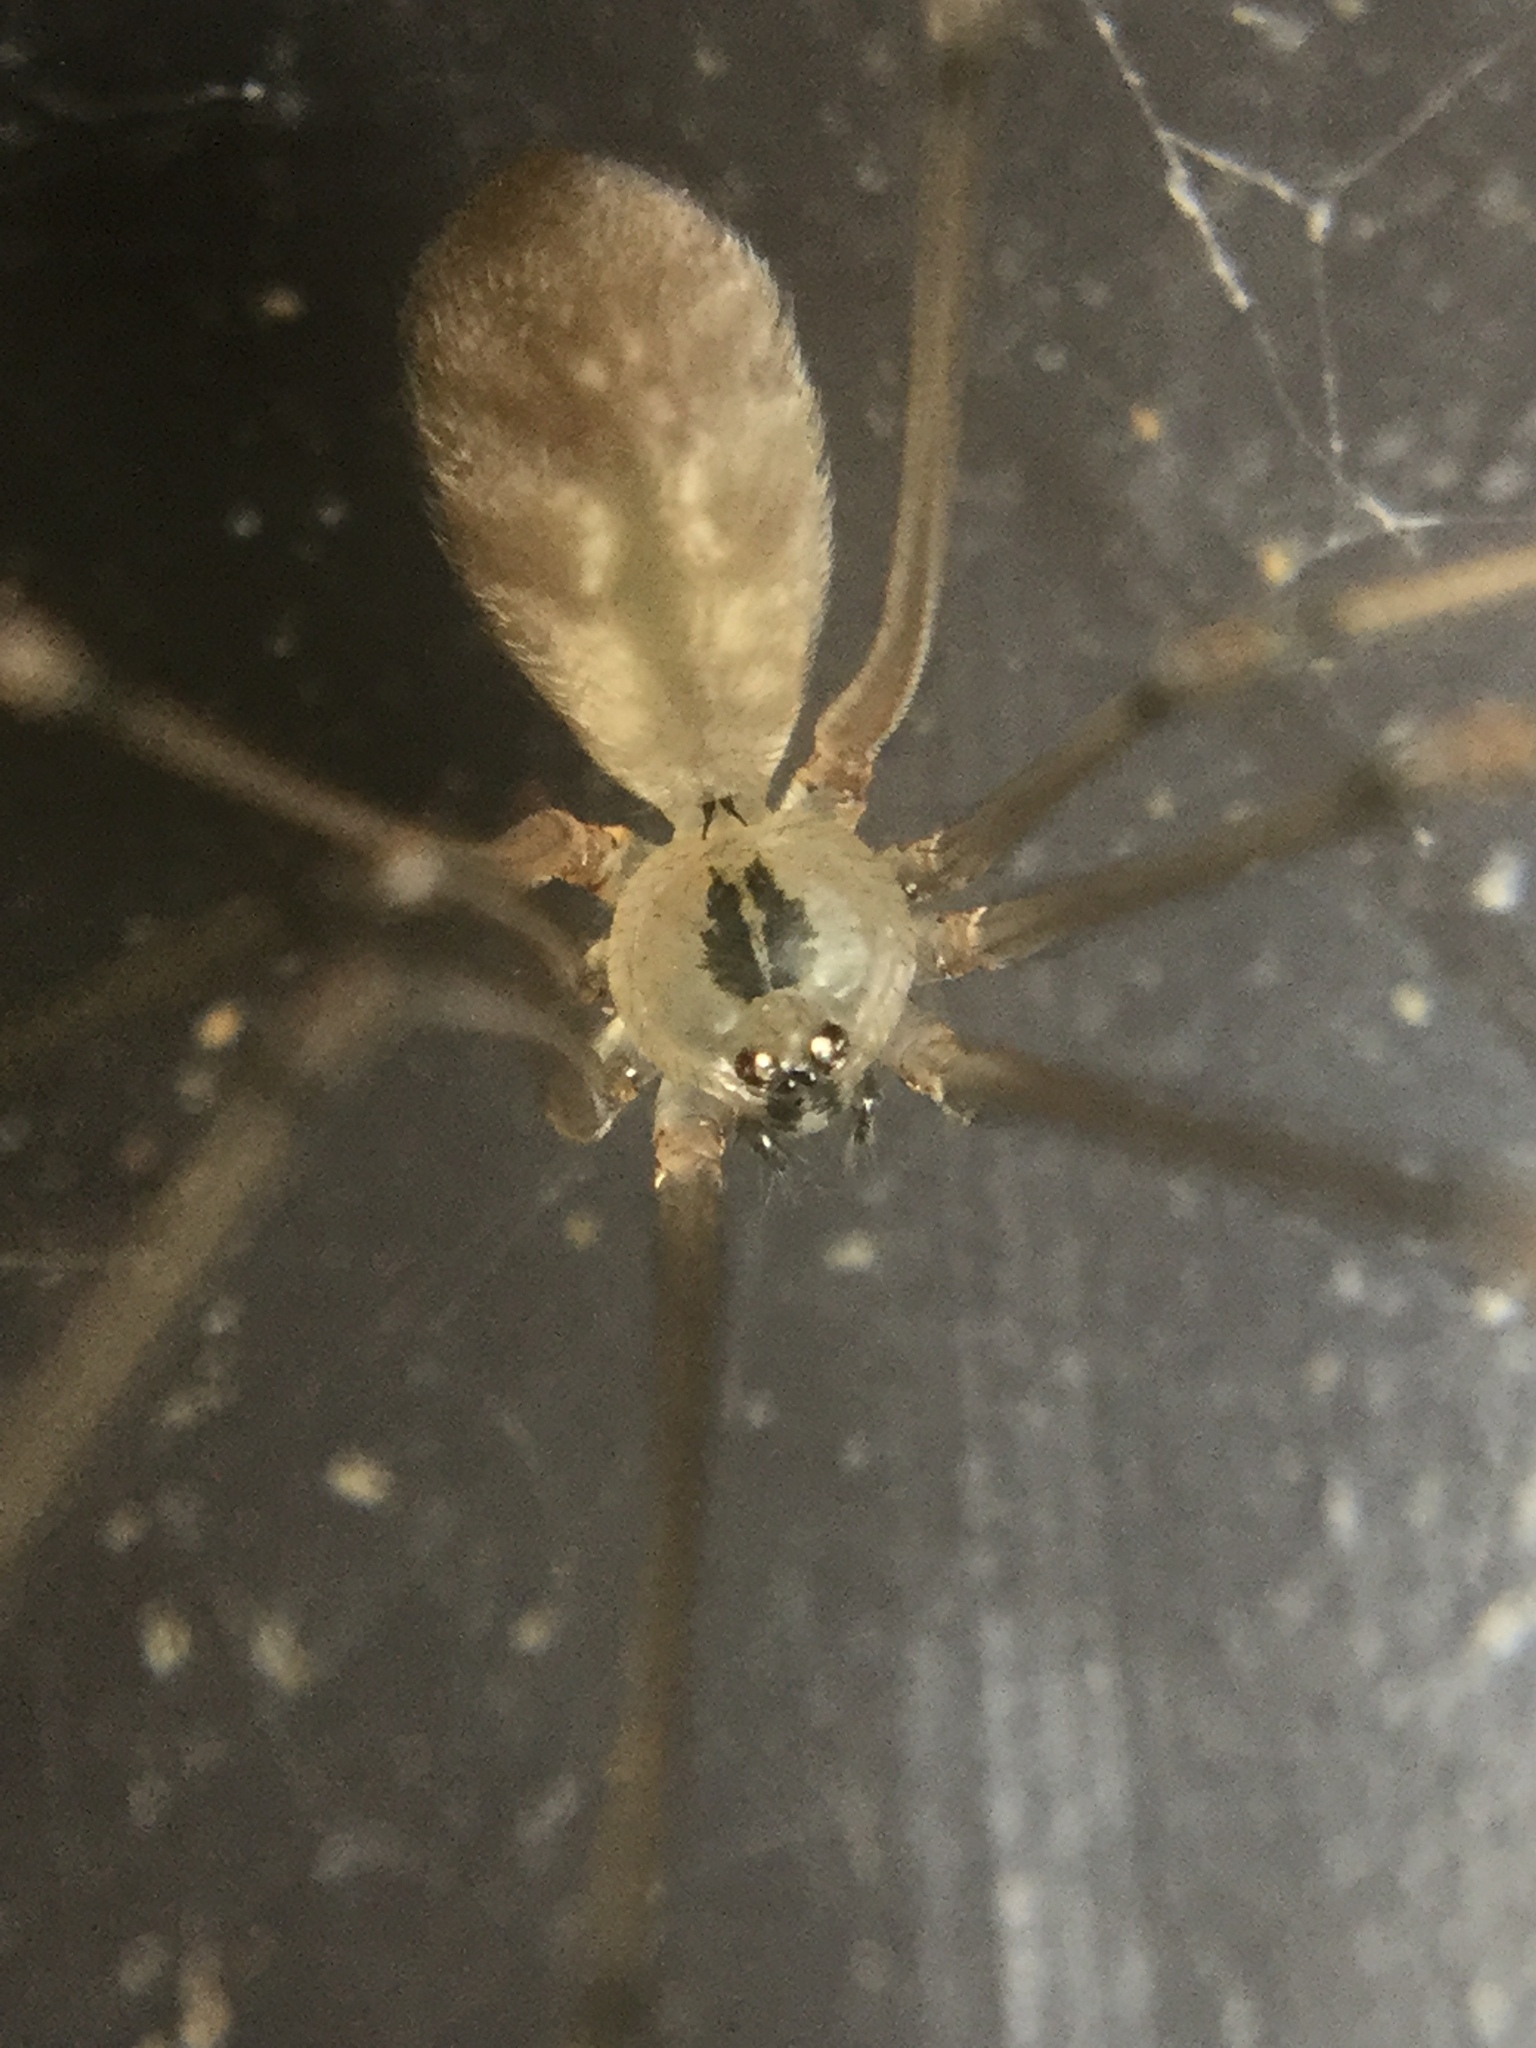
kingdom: Animalia
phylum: Arthropoda
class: Arachnida
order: Araneae
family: Pholcidae
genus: Pholcus
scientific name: Pholcus manueli
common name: Cellar spider
